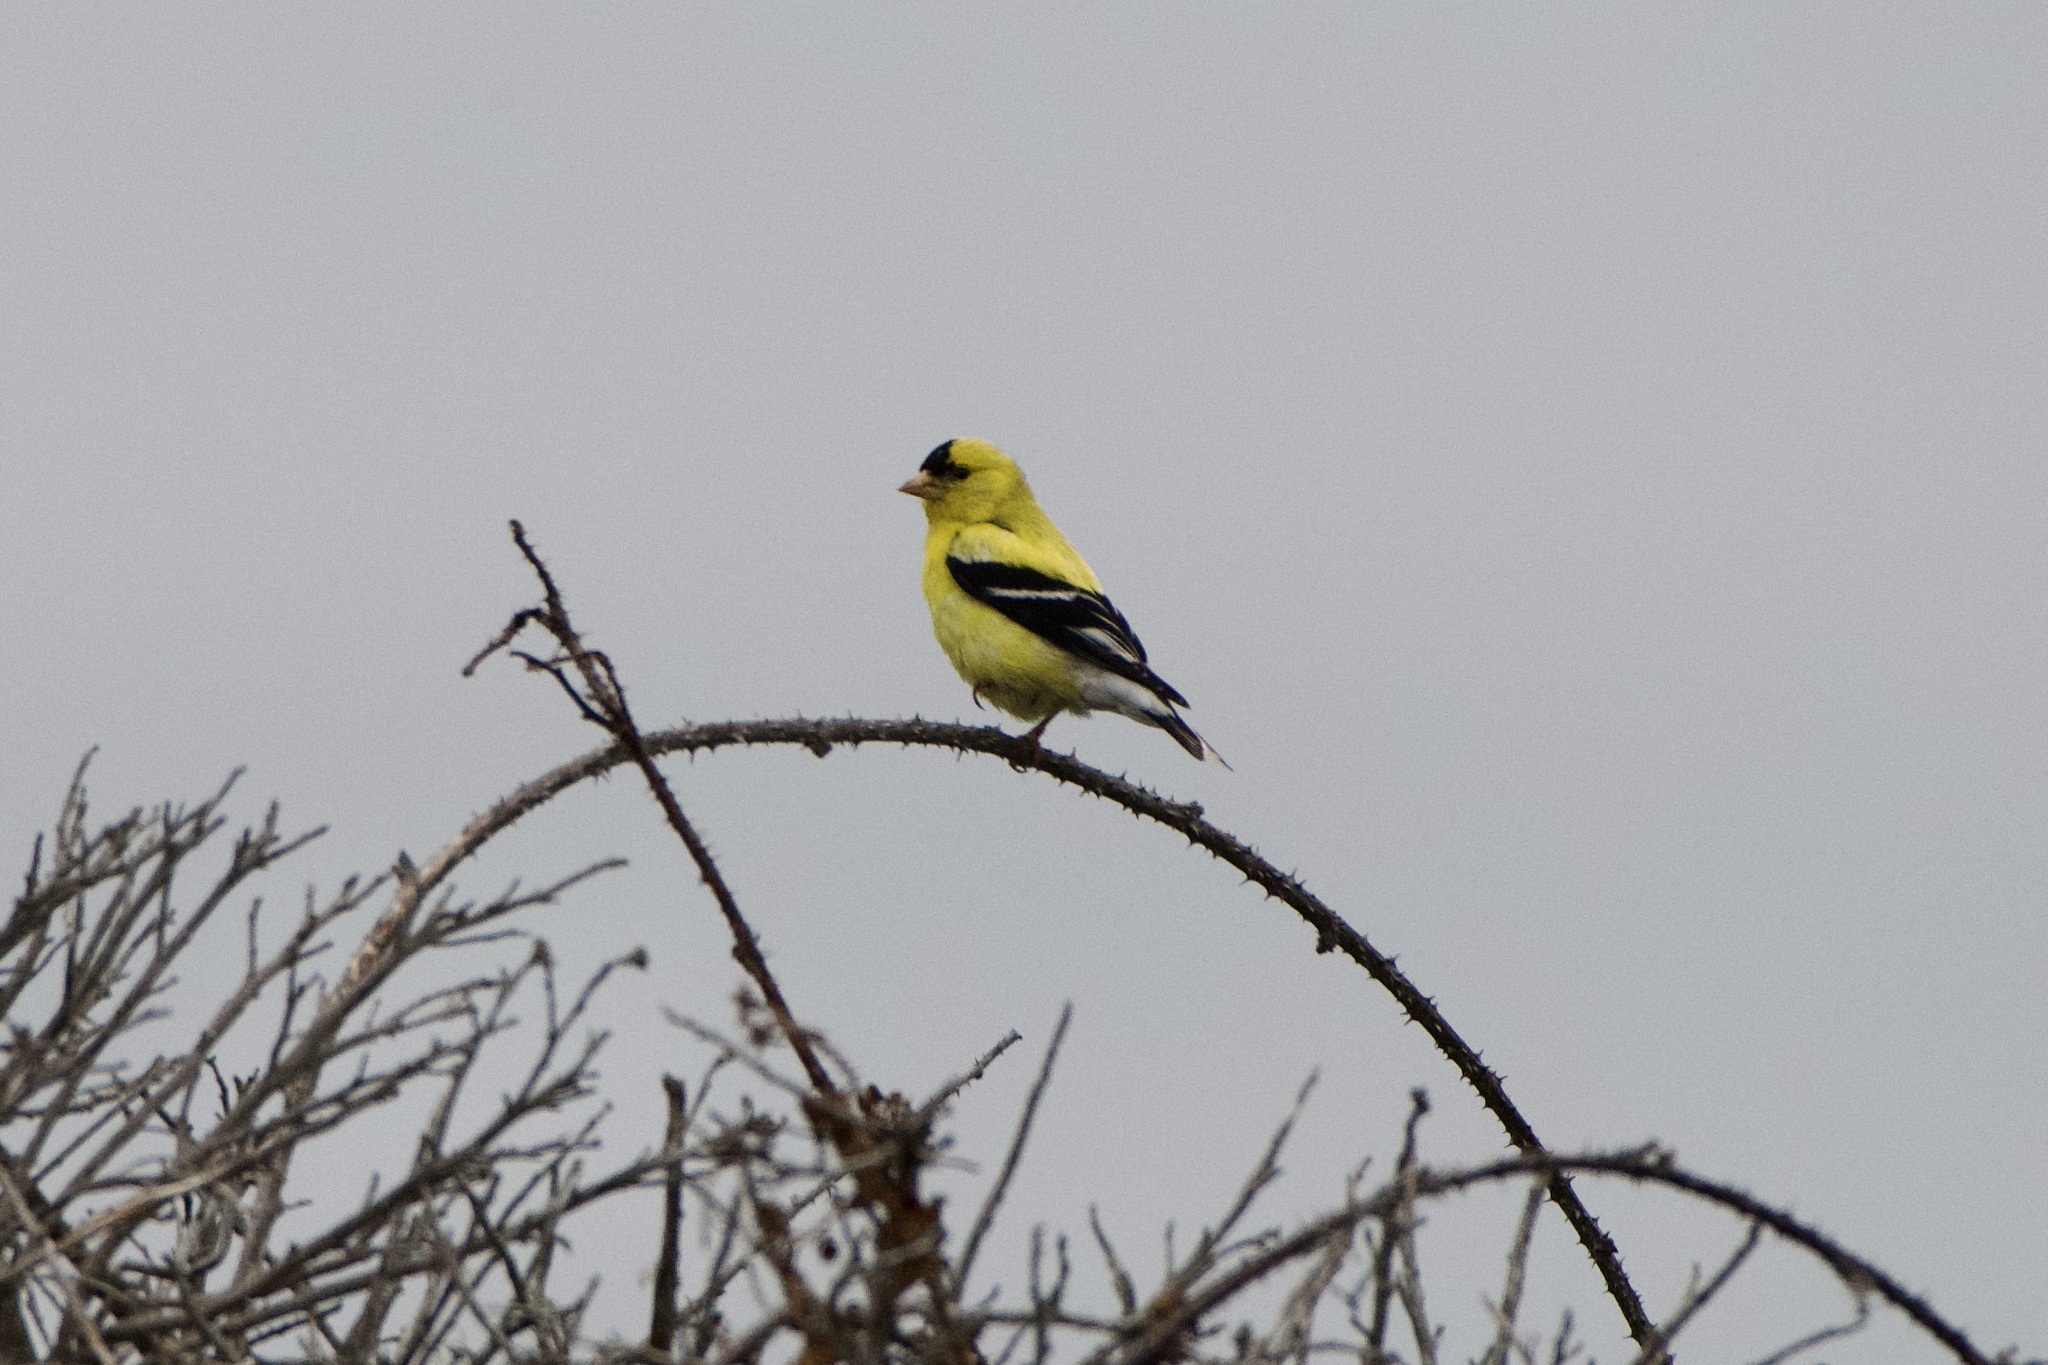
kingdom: Animalia
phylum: Chordata
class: Aves
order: Passeriformes
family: Fringillidae
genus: Spinus
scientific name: Spinus tristis
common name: American goldfinch
